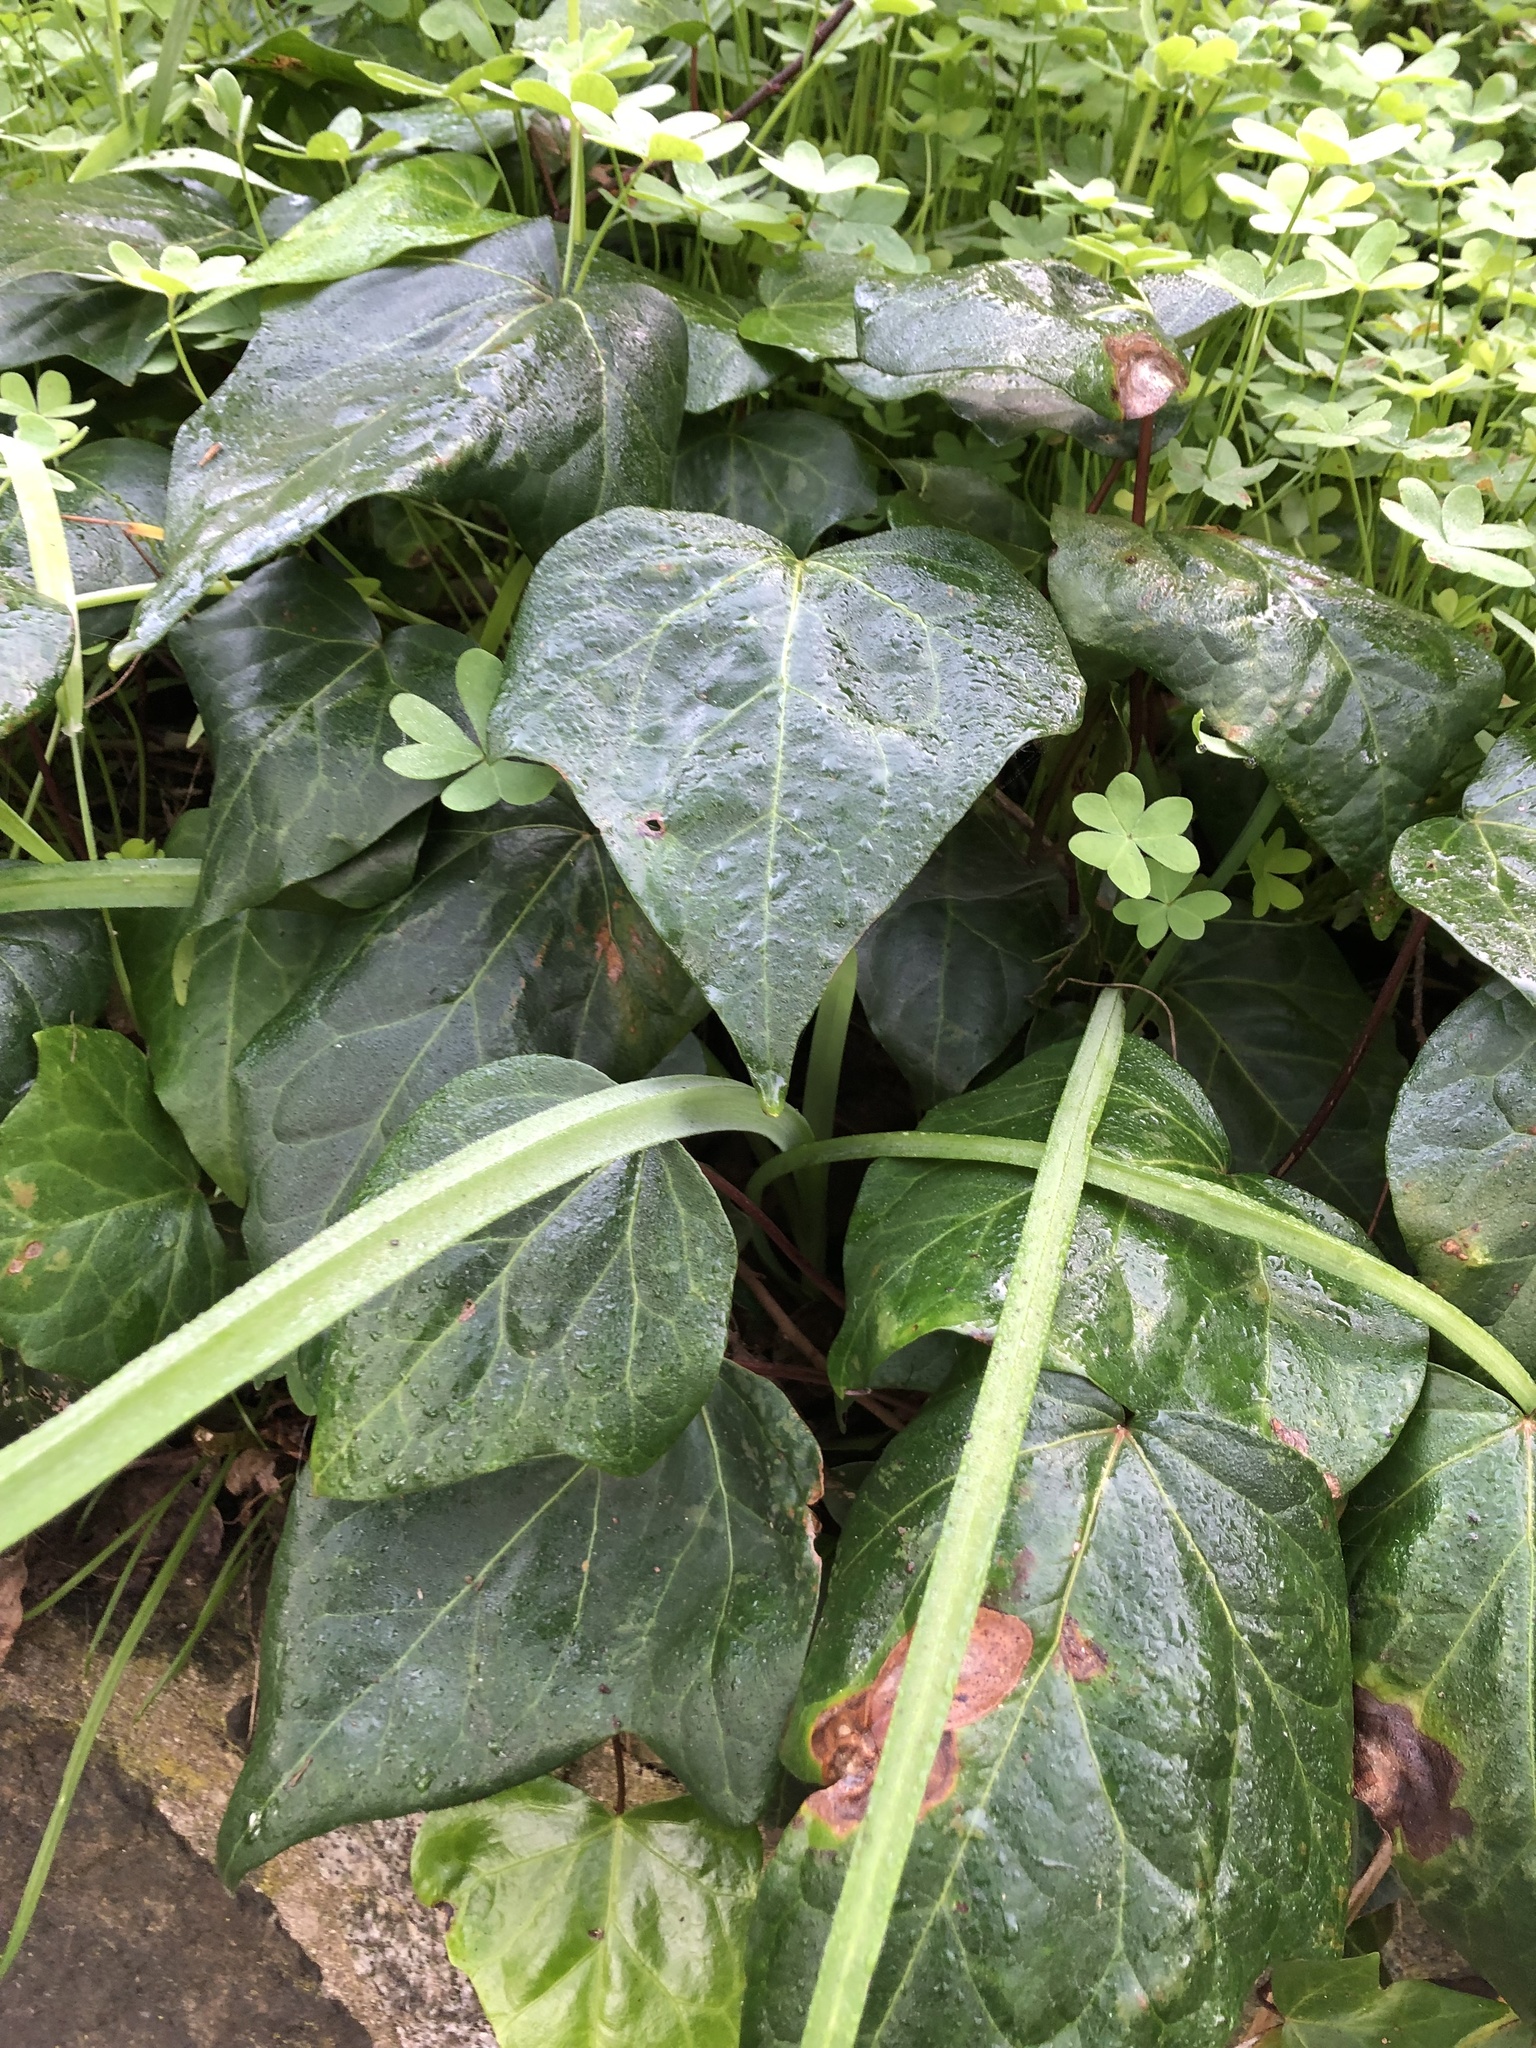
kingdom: Plantae
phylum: Tracheophyta
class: Magnoliopsida
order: Apiales
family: Araliaceae
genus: Hedera
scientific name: Hedera helix
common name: Ivy
